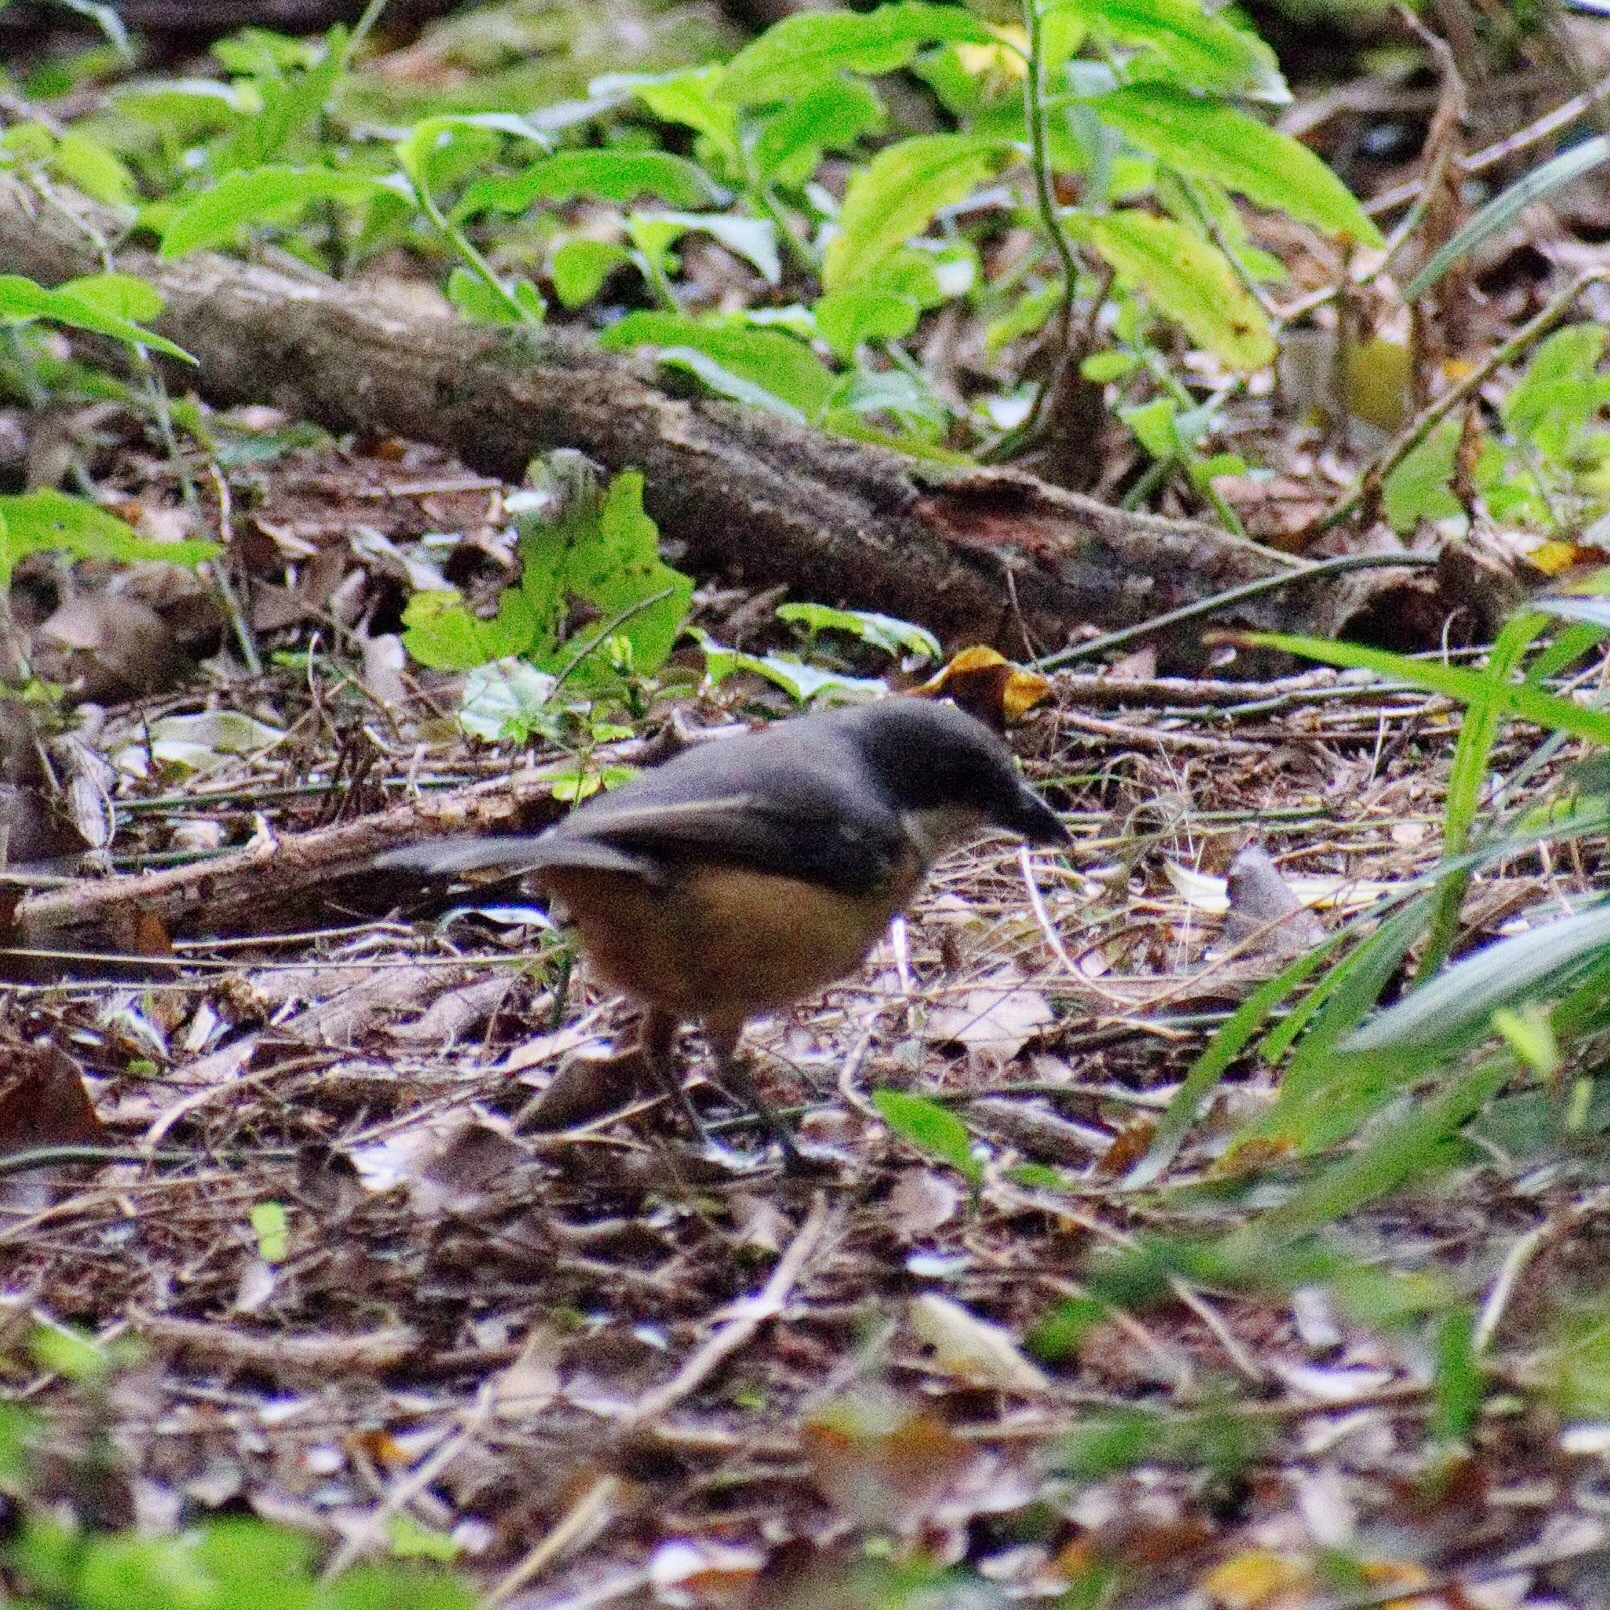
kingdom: Animalia
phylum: Chordata
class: Aves
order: Passeriformes
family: Malaconotidae
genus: Laniarius
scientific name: Laniarius ferrugineus
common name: Southern boubou
